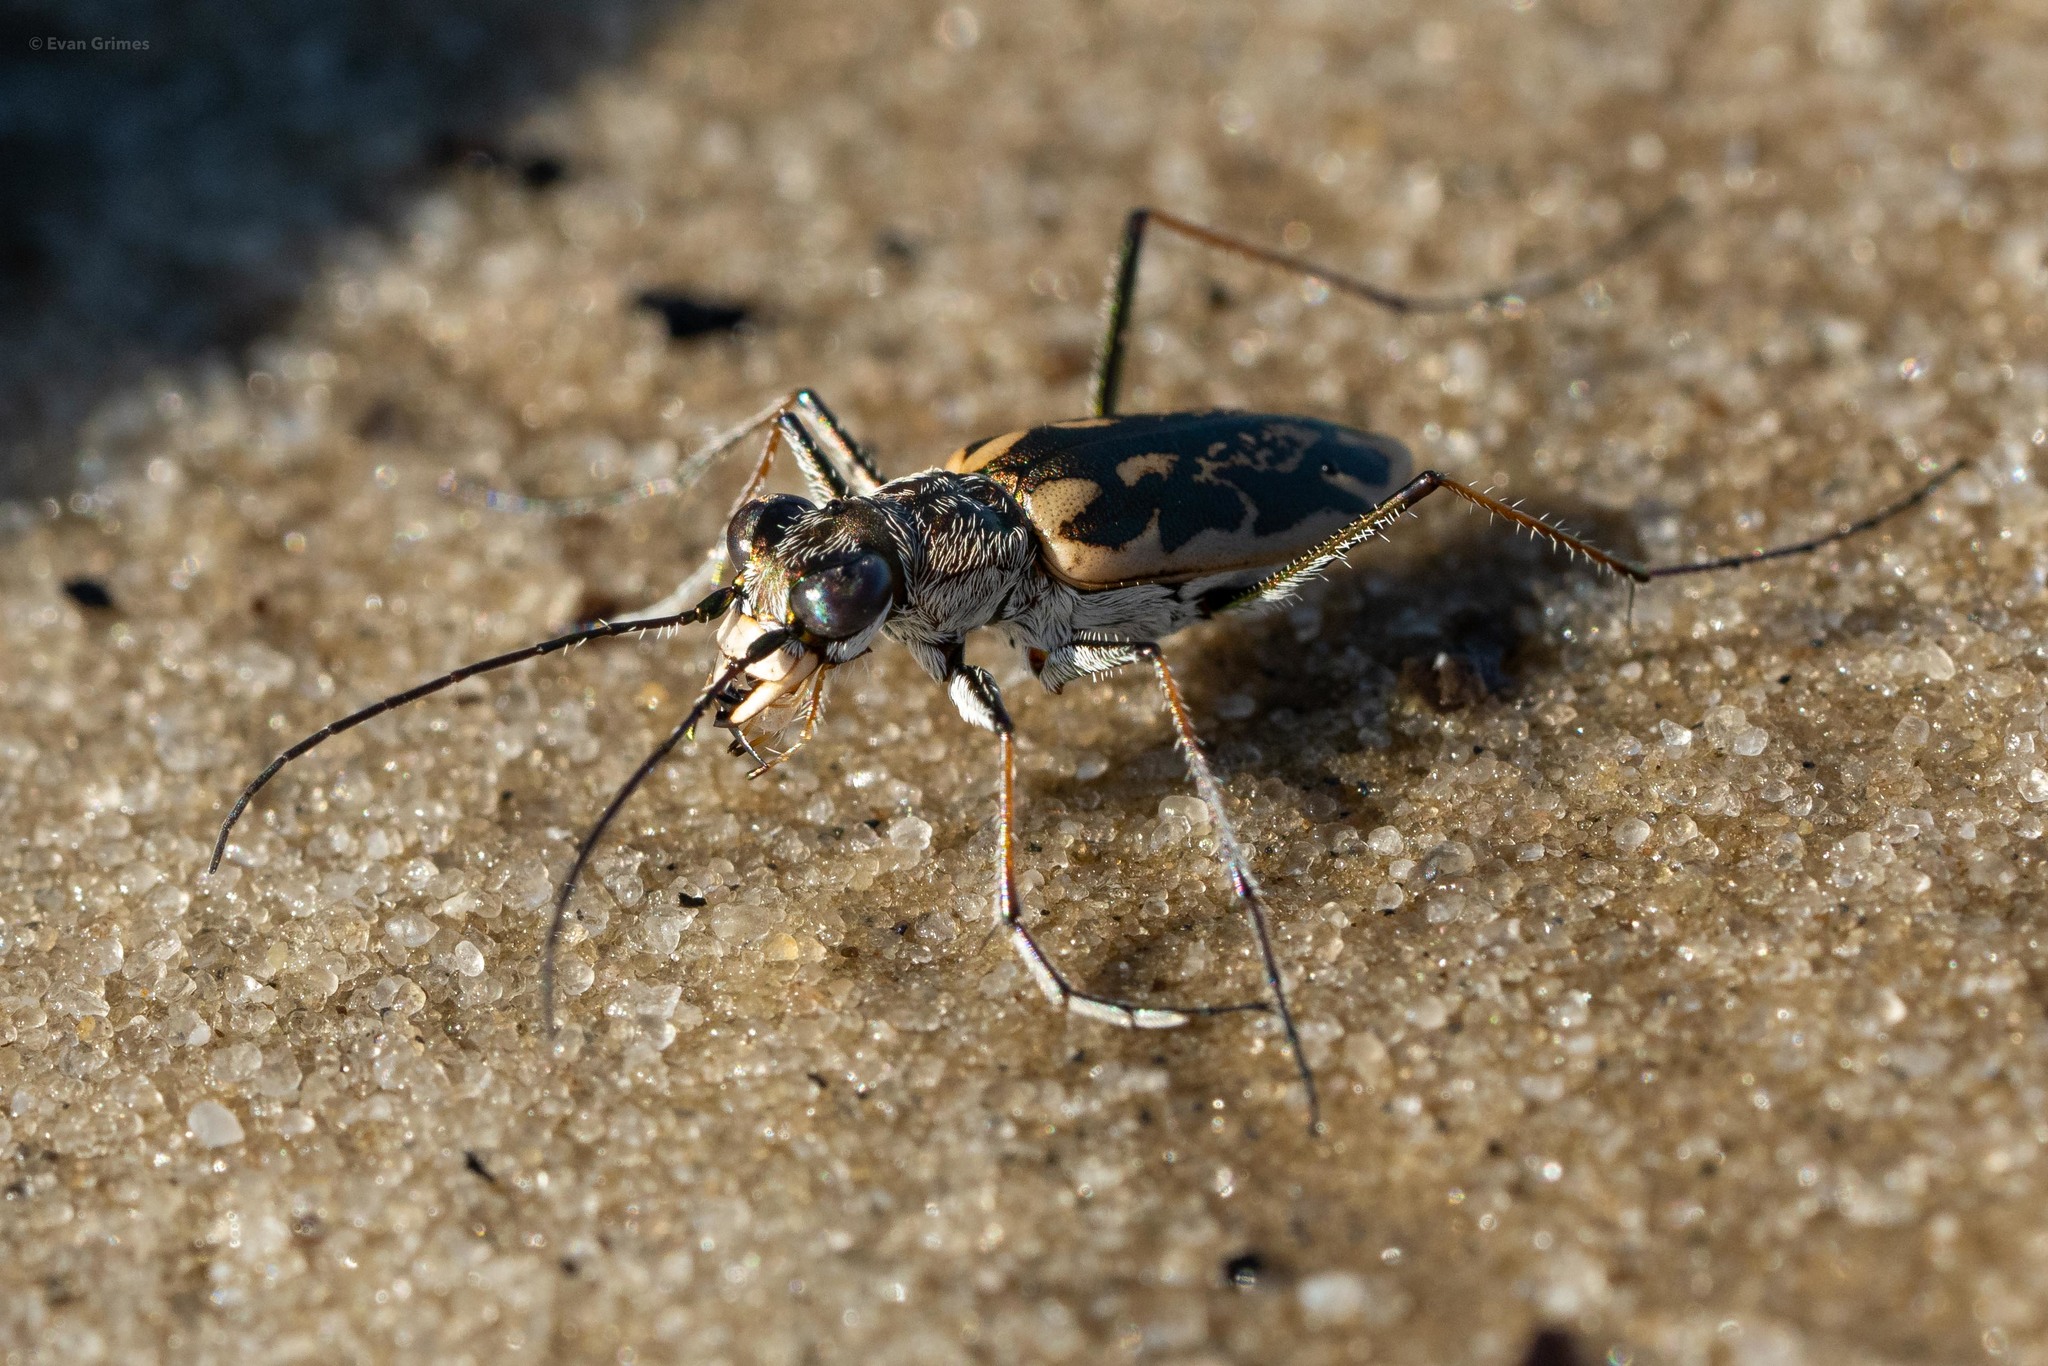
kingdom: Animalia
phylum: Arthropoda
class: Insecta
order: Coleoptera
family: Carabidae
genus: Ellipsoptera
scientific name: Ellipsoptera hamata
